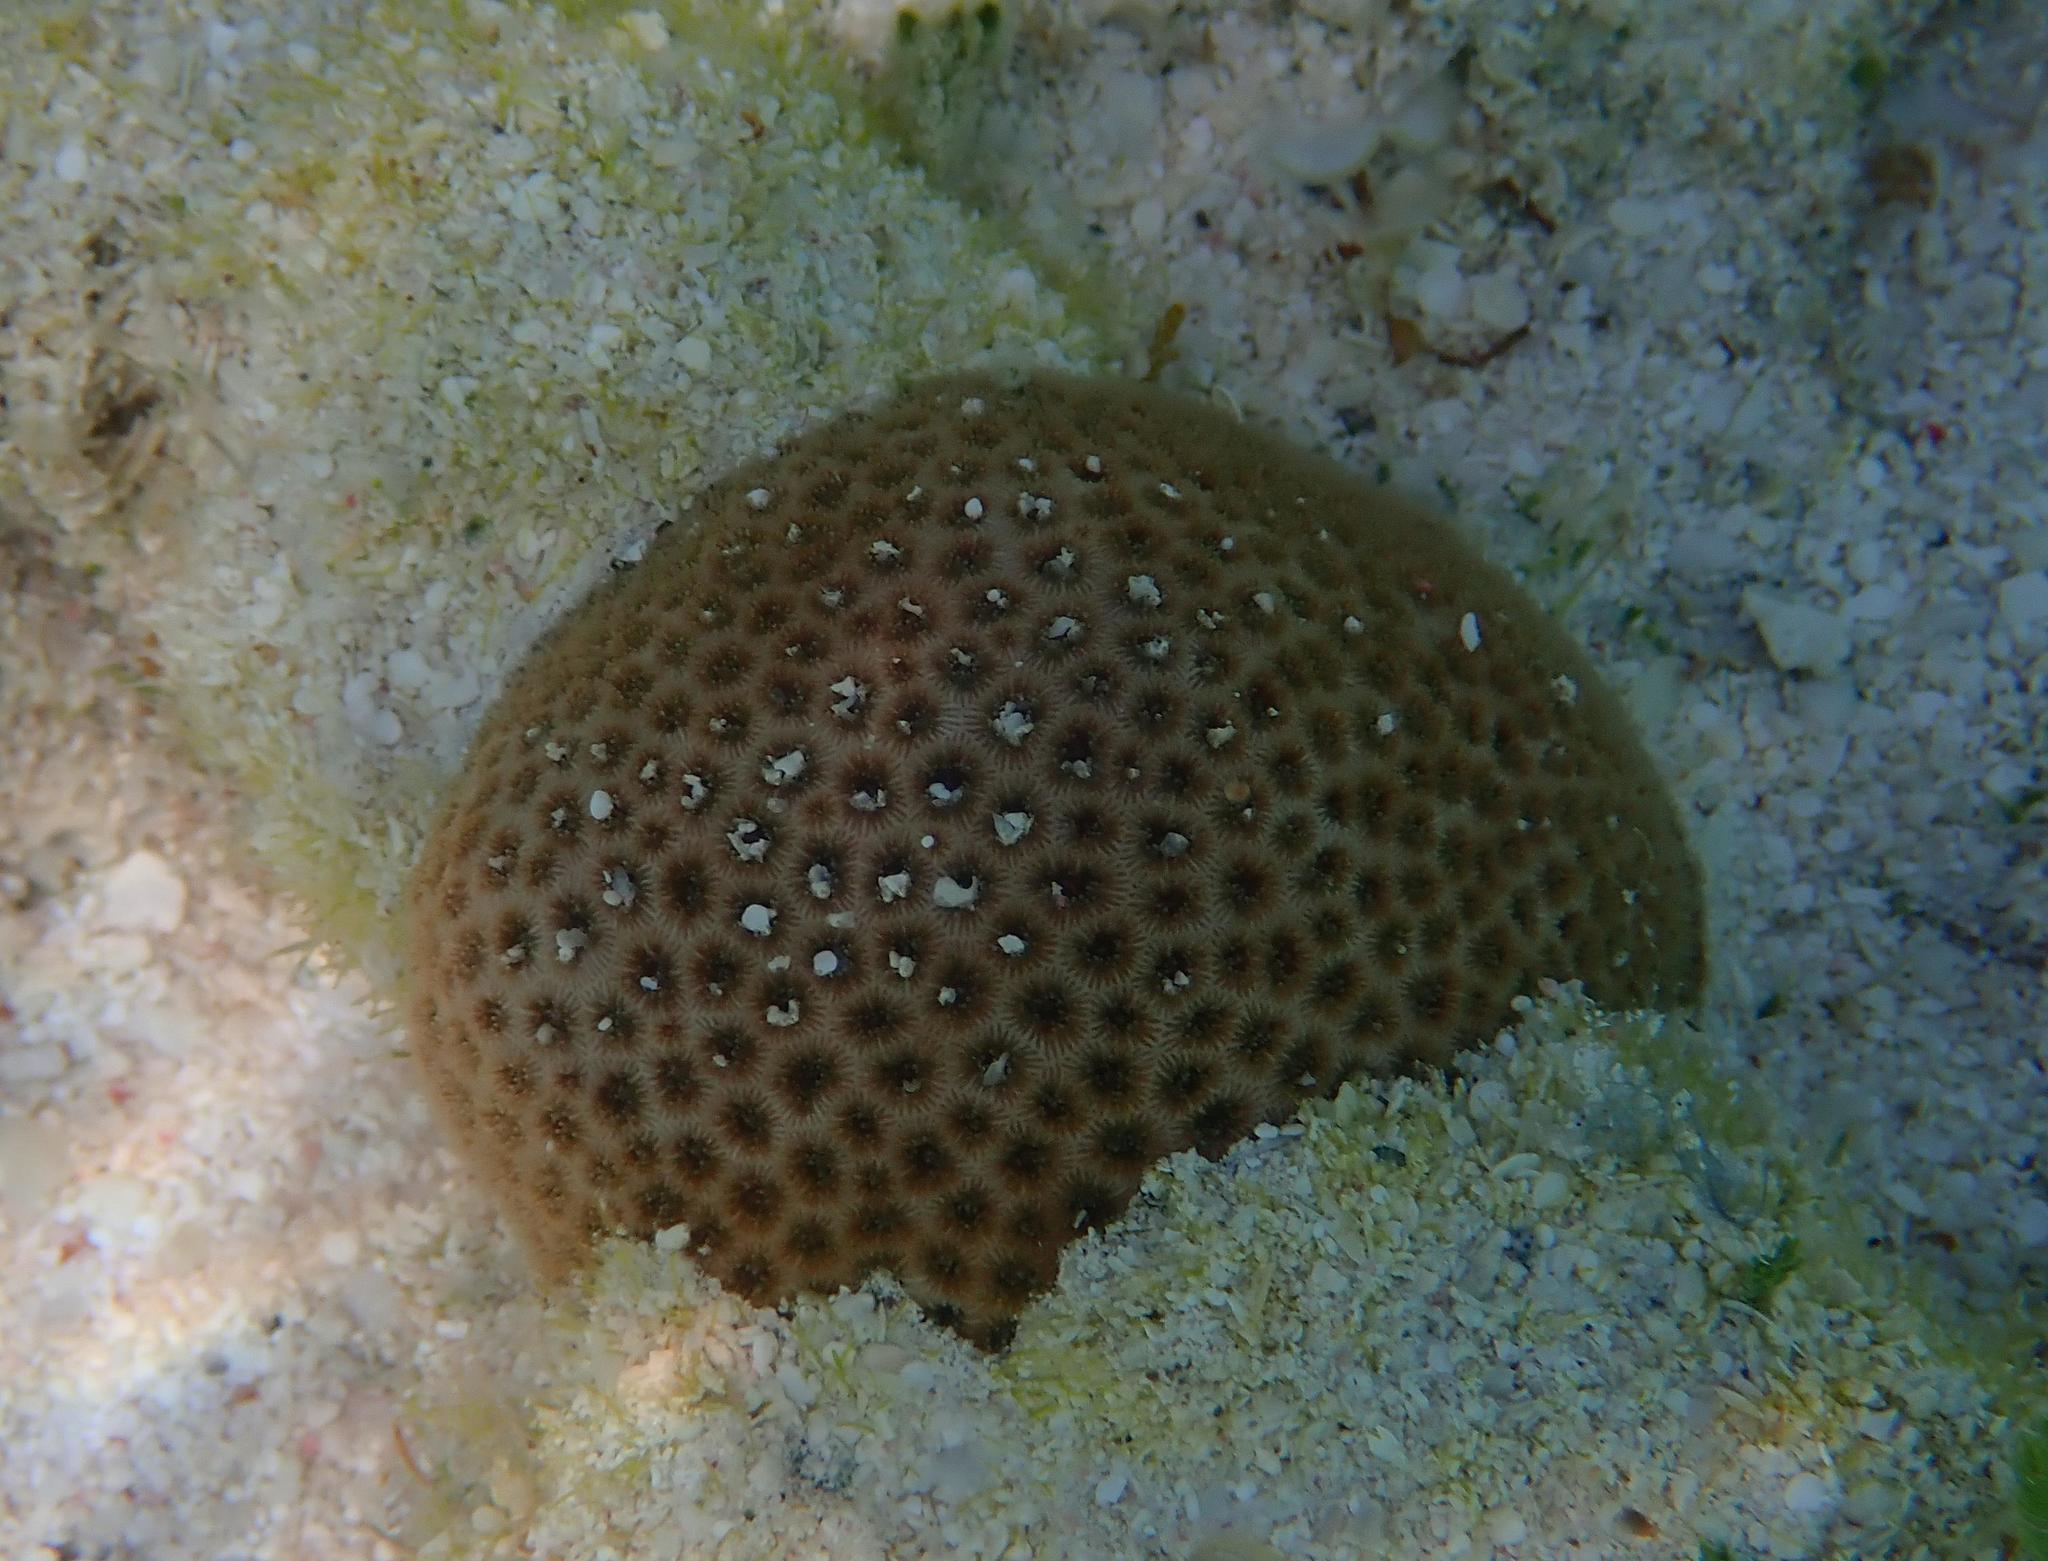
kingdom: Animalia
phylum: Cnidaria
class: Anthozoa
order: Scleractinia
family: Rhizangiidae
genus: Siderastrea
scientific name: Siderastrea radians
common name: Lesser starlet coral
